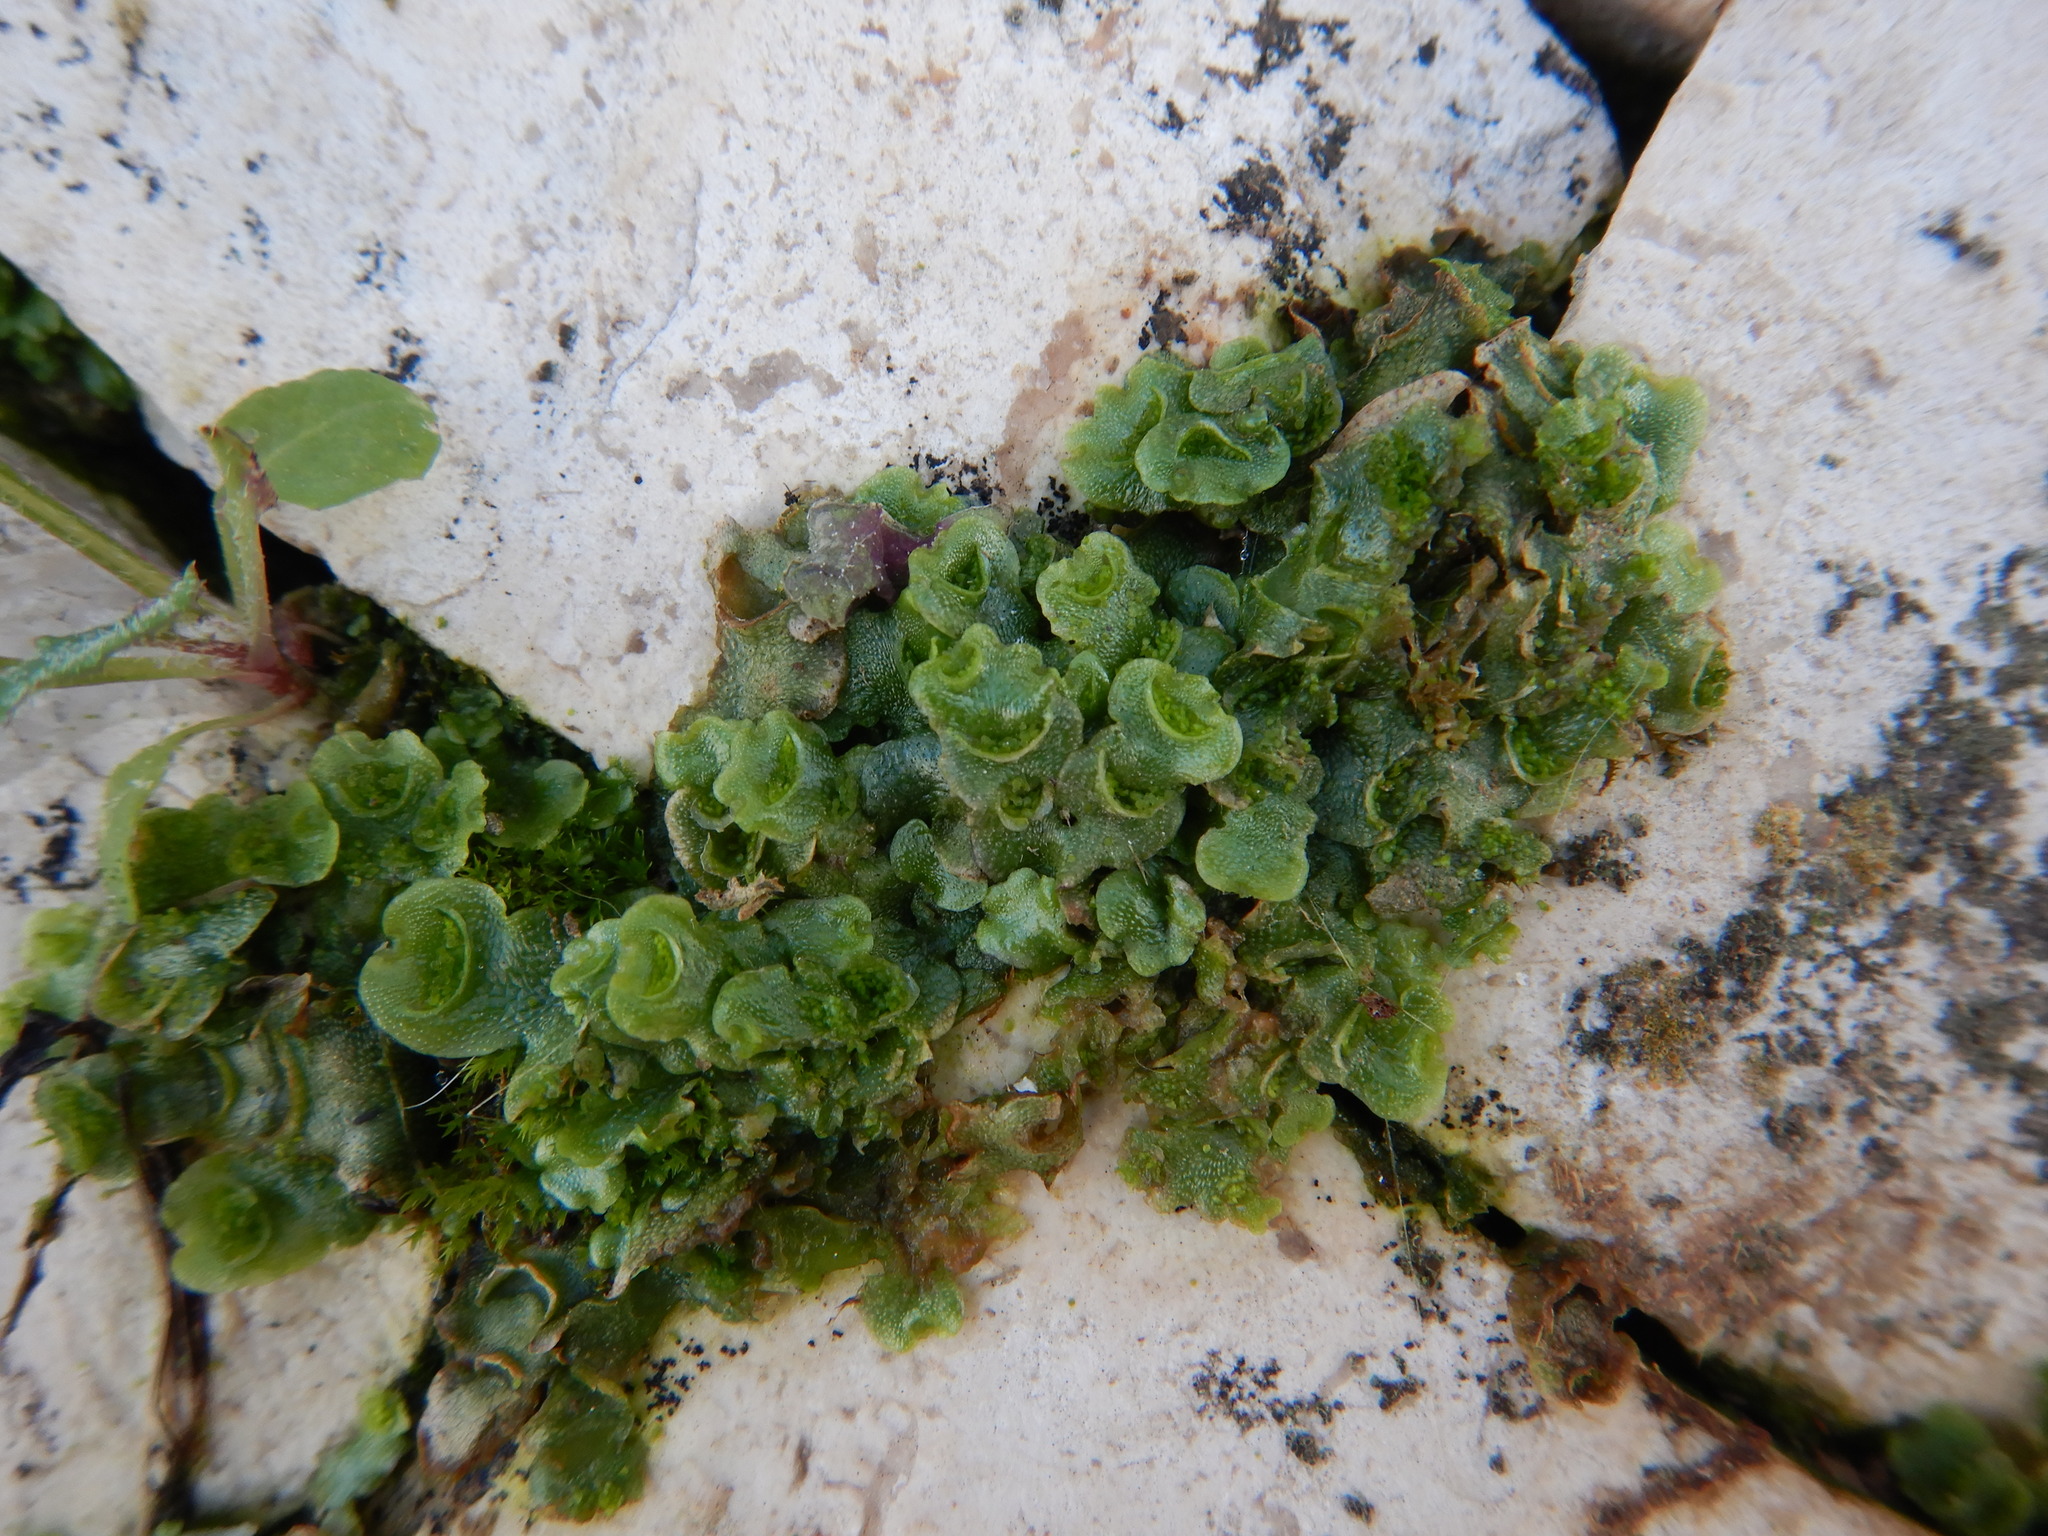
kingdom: Plantae
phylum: Marchantiophyta
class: Marchantiopsida
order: Lunulariales
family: Lunulariaceae
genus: Lunularia
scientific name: Lunularia cruciata
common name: Crescent-cup liverwort
